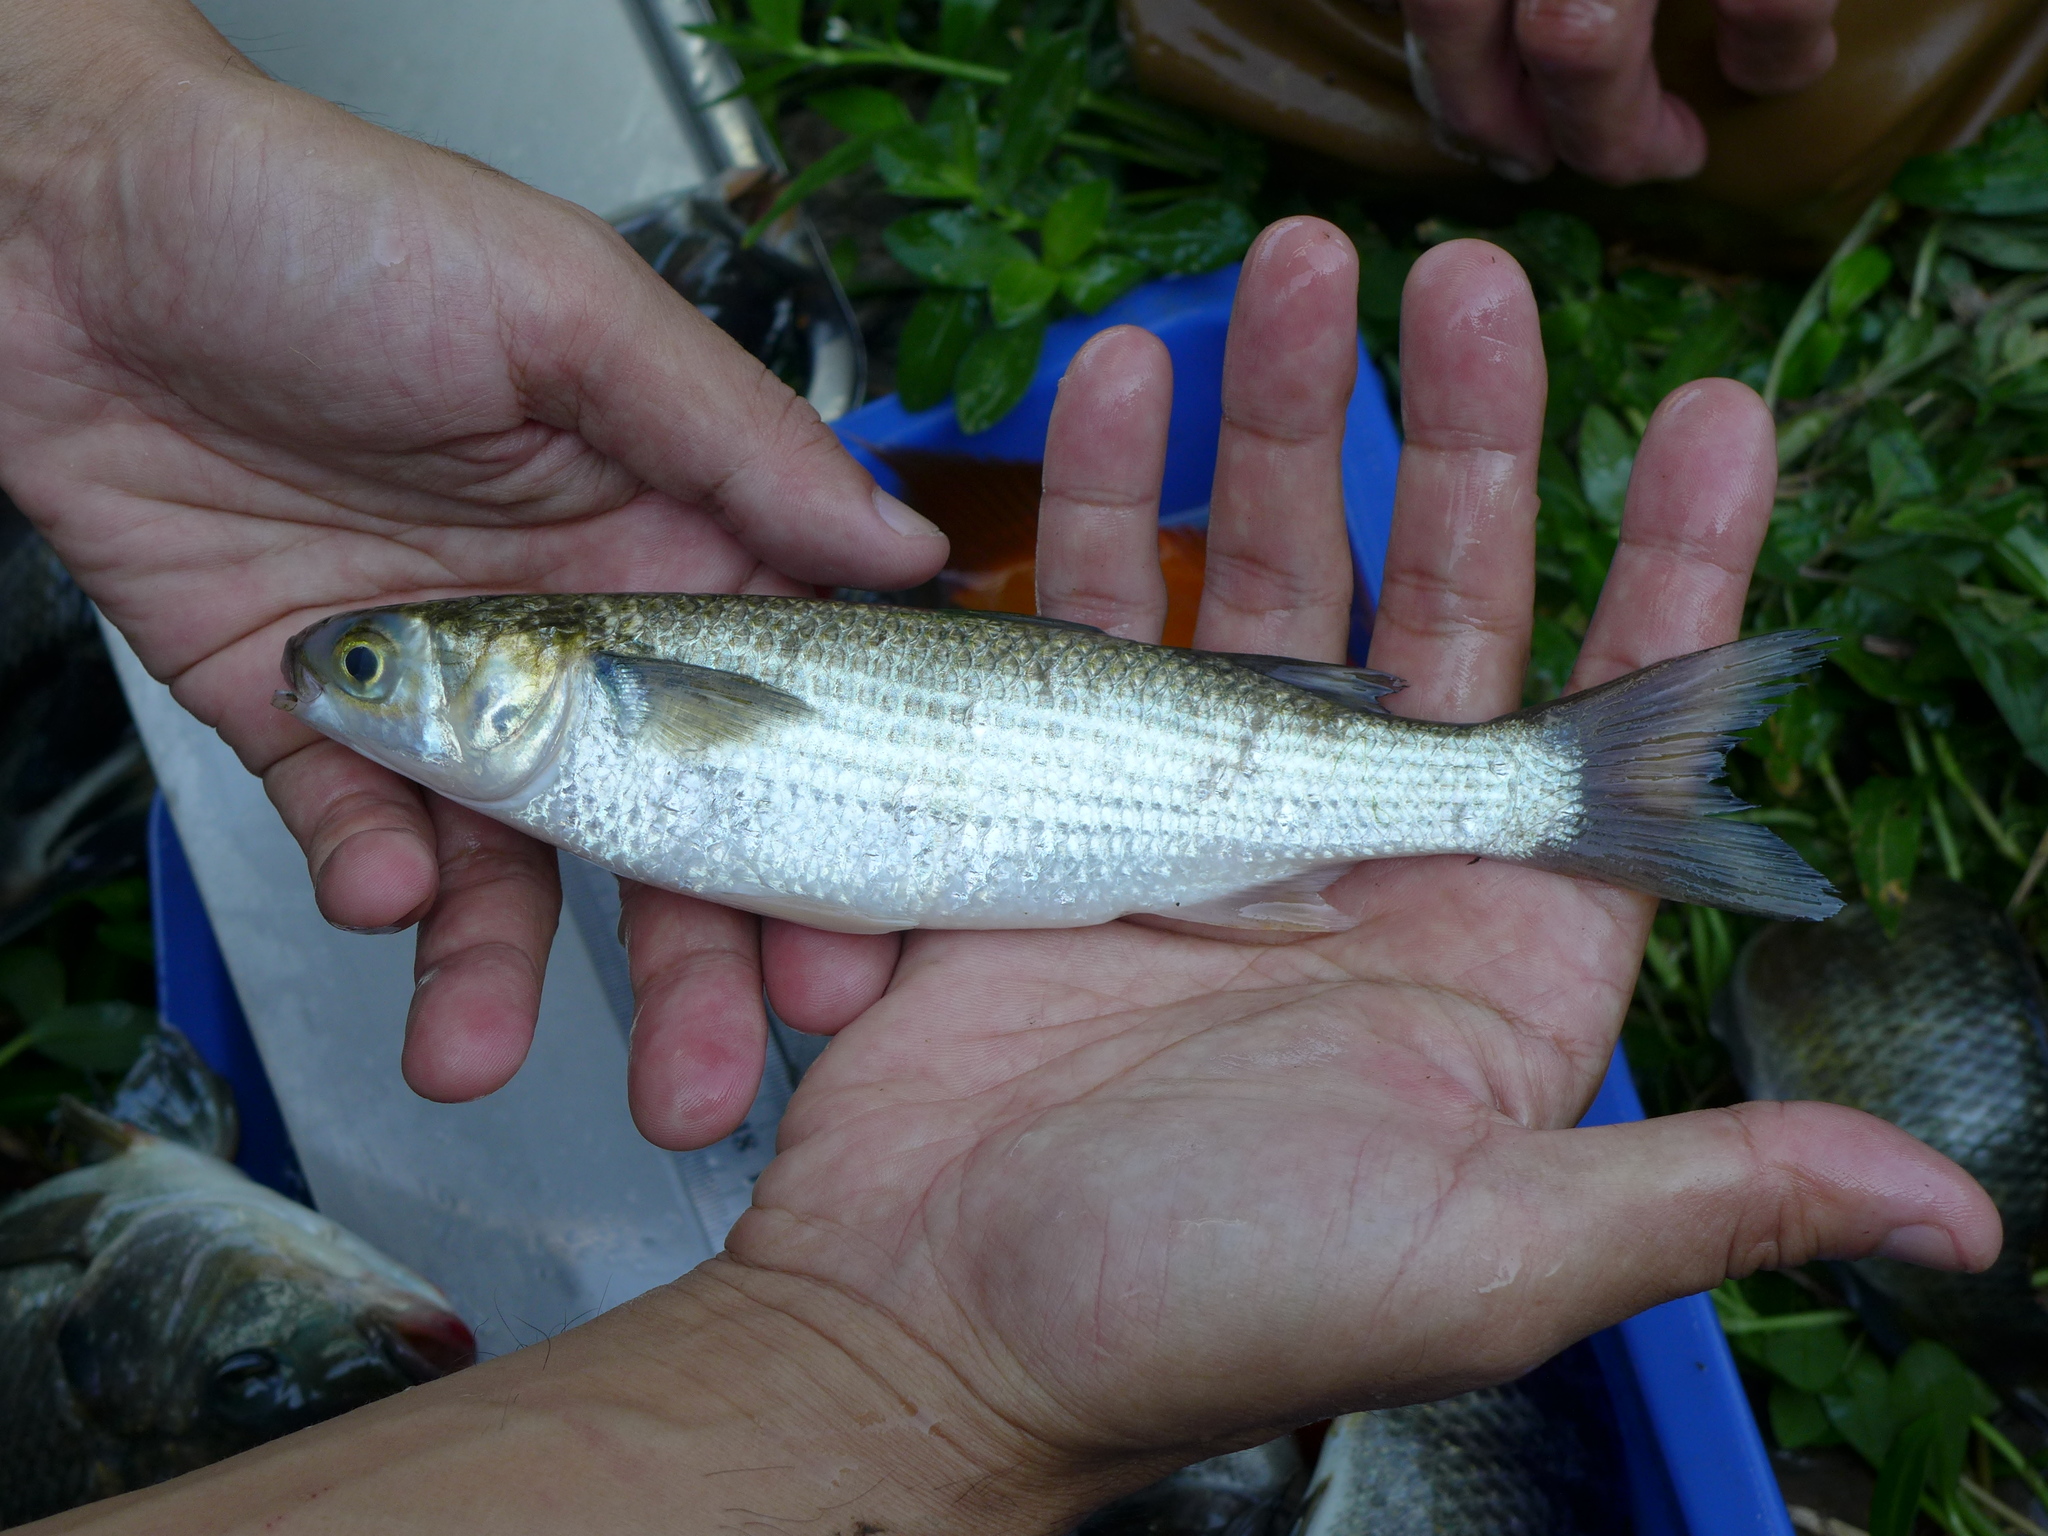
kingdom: Animalia
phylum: Chordata
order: Mugiliformes
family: Mugilidae
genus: Mugil
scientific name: Mugil cephalus
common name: Grey mullet
